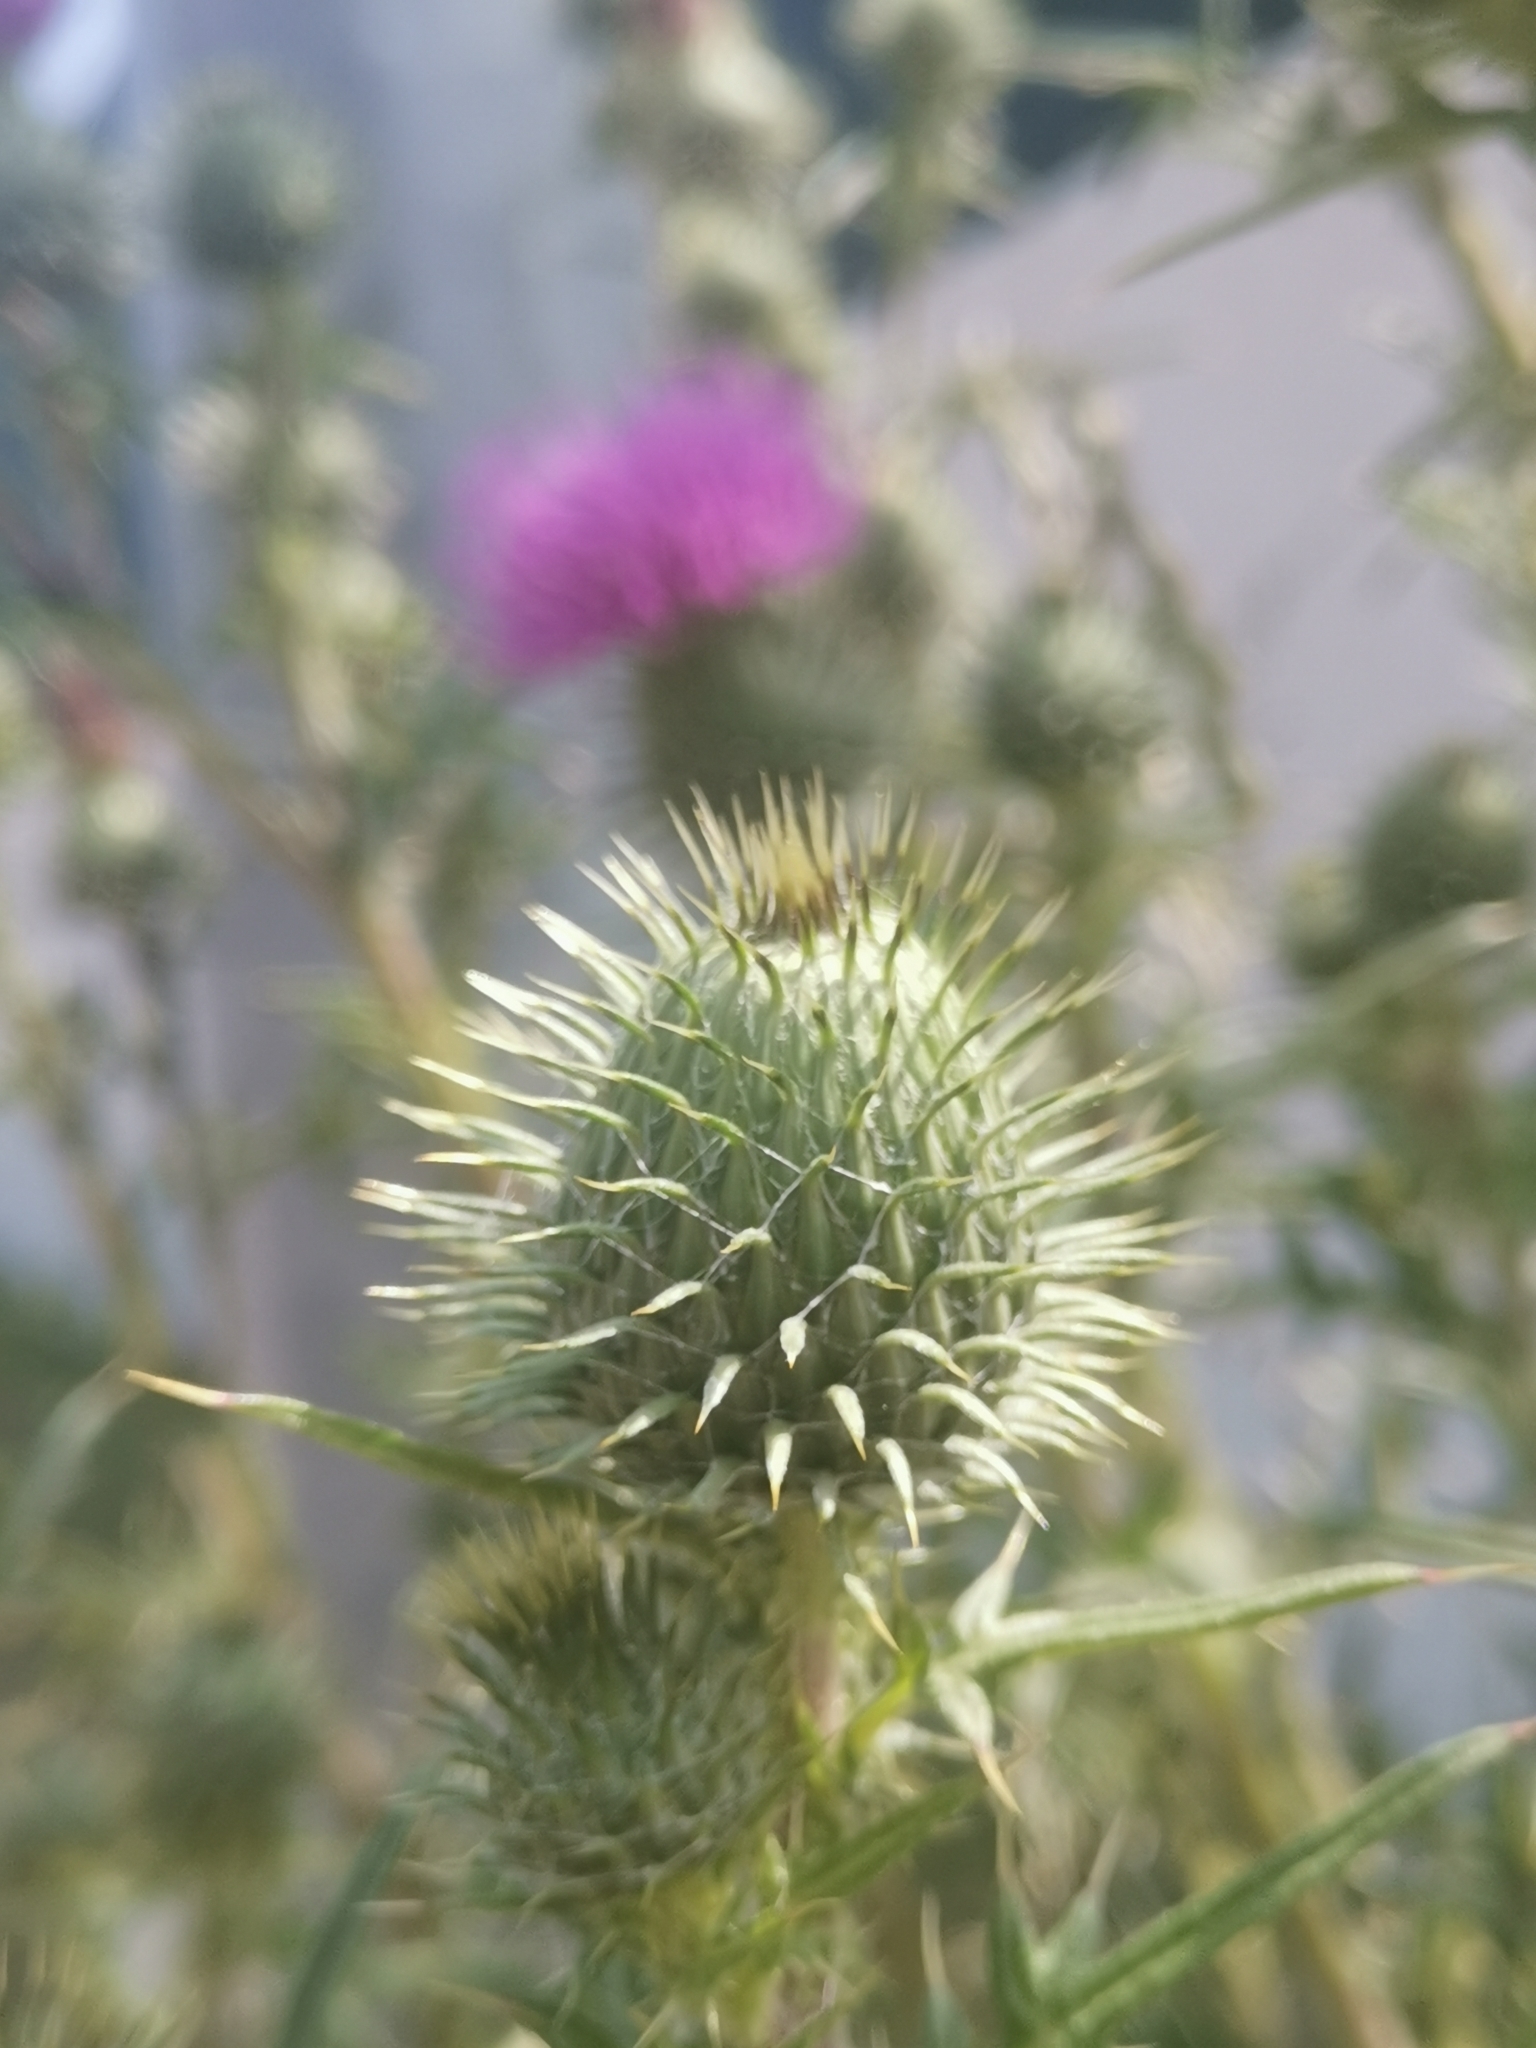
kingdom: Plantae
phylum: Tracheophyta
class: Magnoliopsida
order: Asterales
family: Asteraceae
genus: Cirsium
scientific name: Cirsium vulgare
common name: Bull thistle
